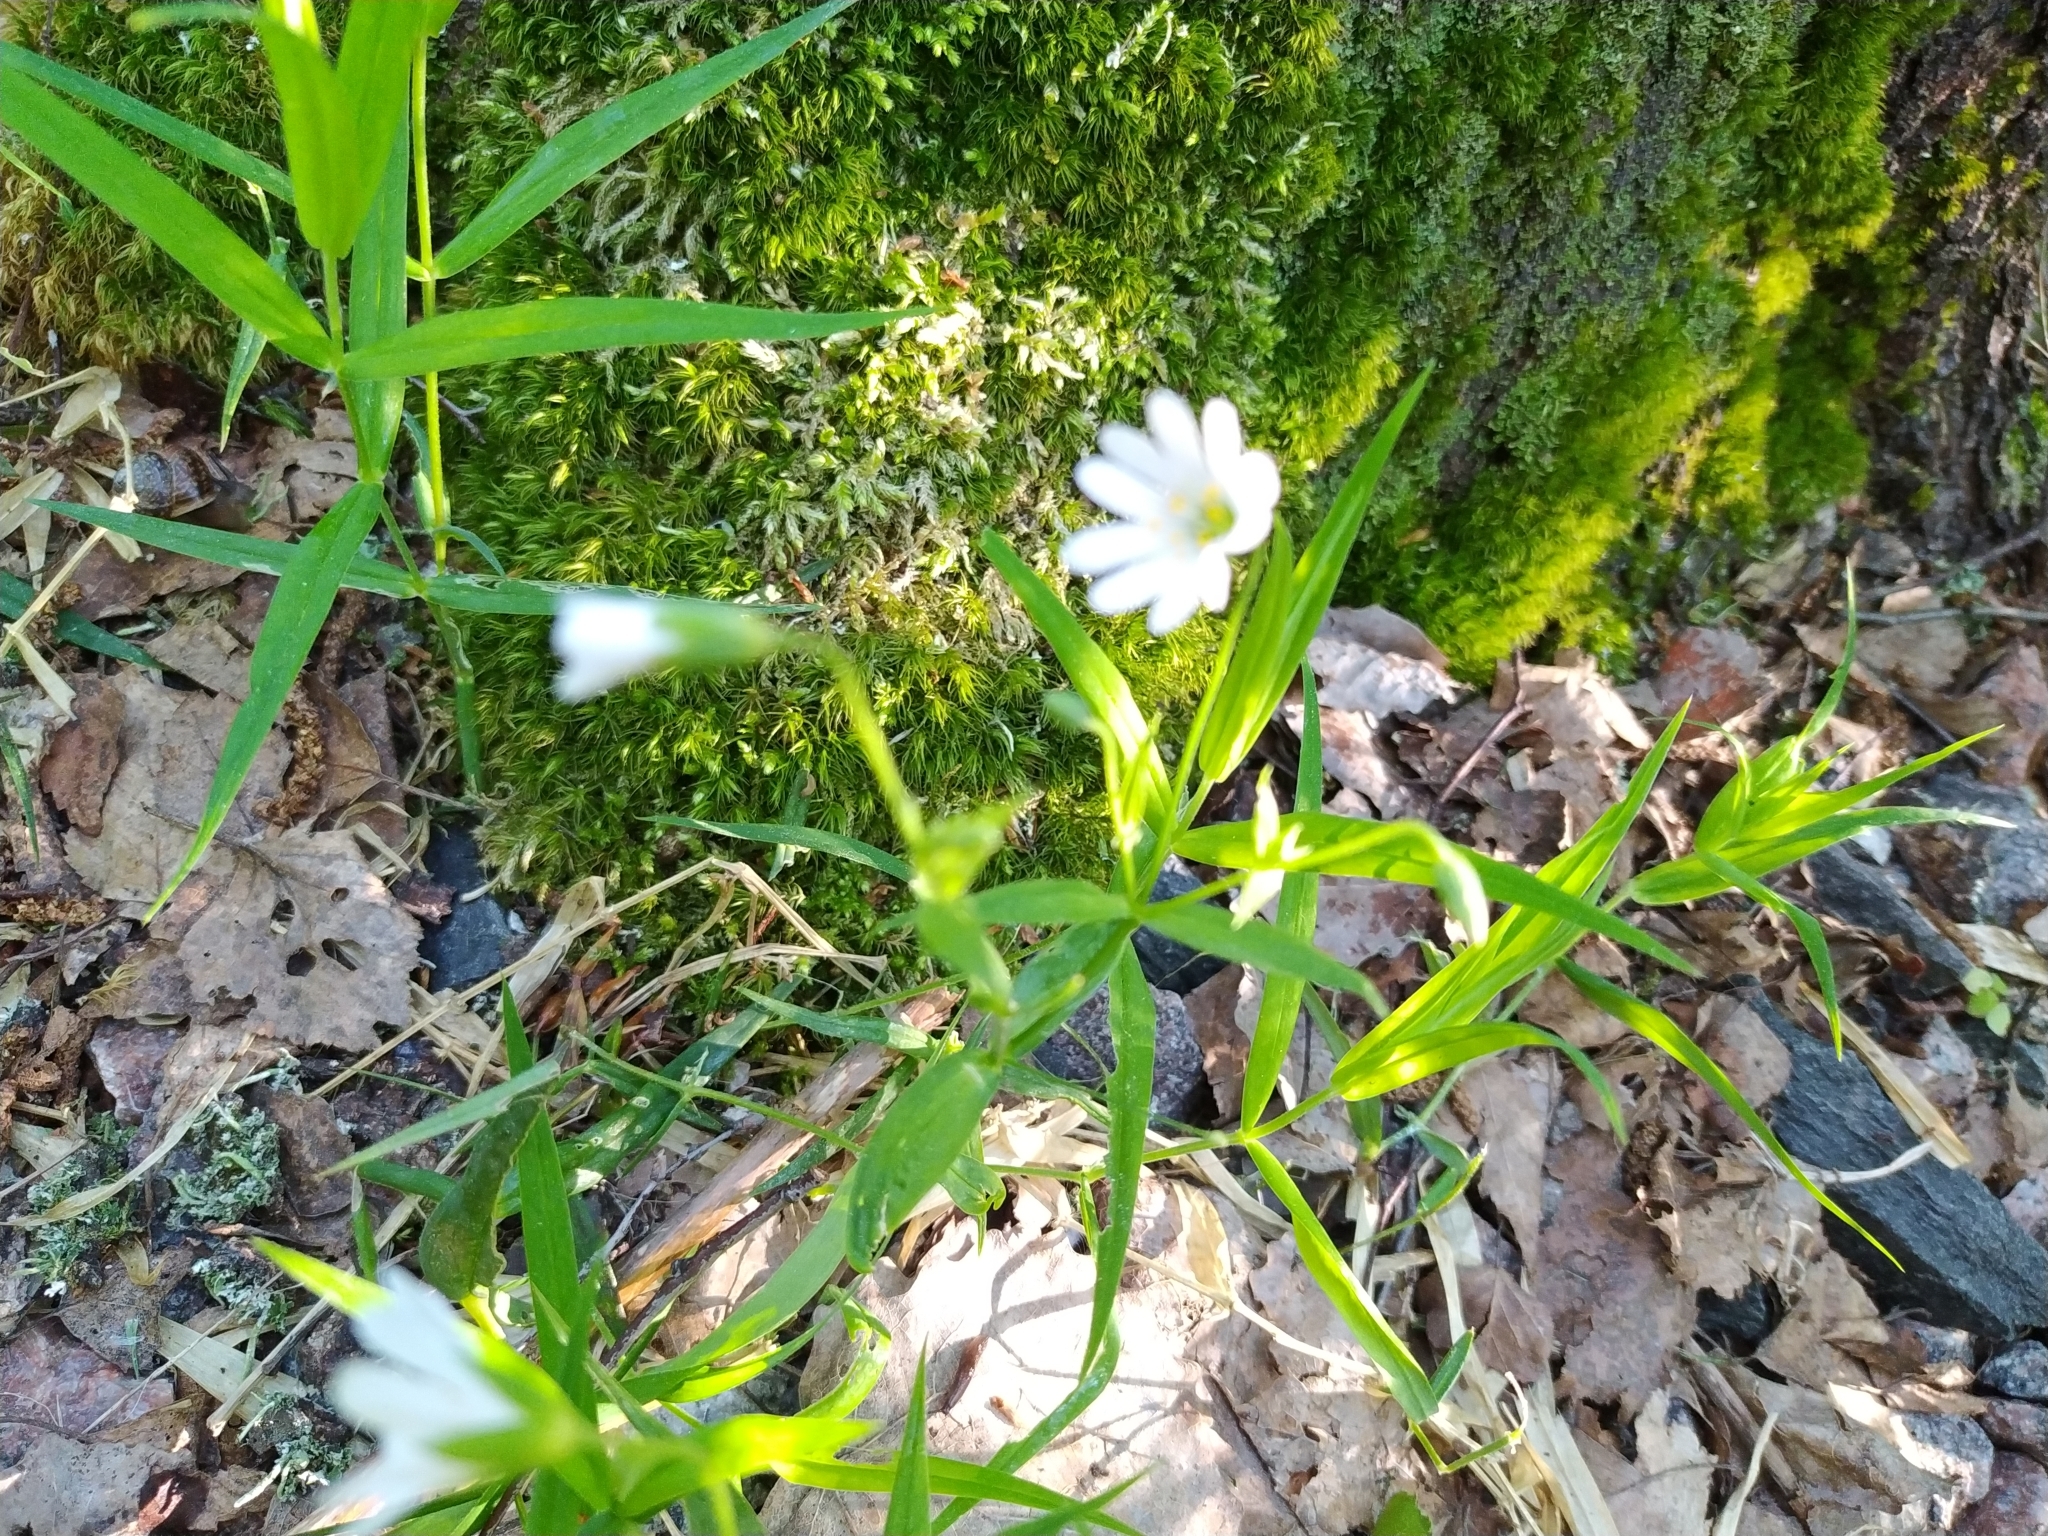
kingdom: Plantae
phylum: Tracheophyta
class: Magnoliopsida
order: Caryophyllales
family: Caryophyllaceae
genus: Rabelera
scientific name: Rabelera holostea
